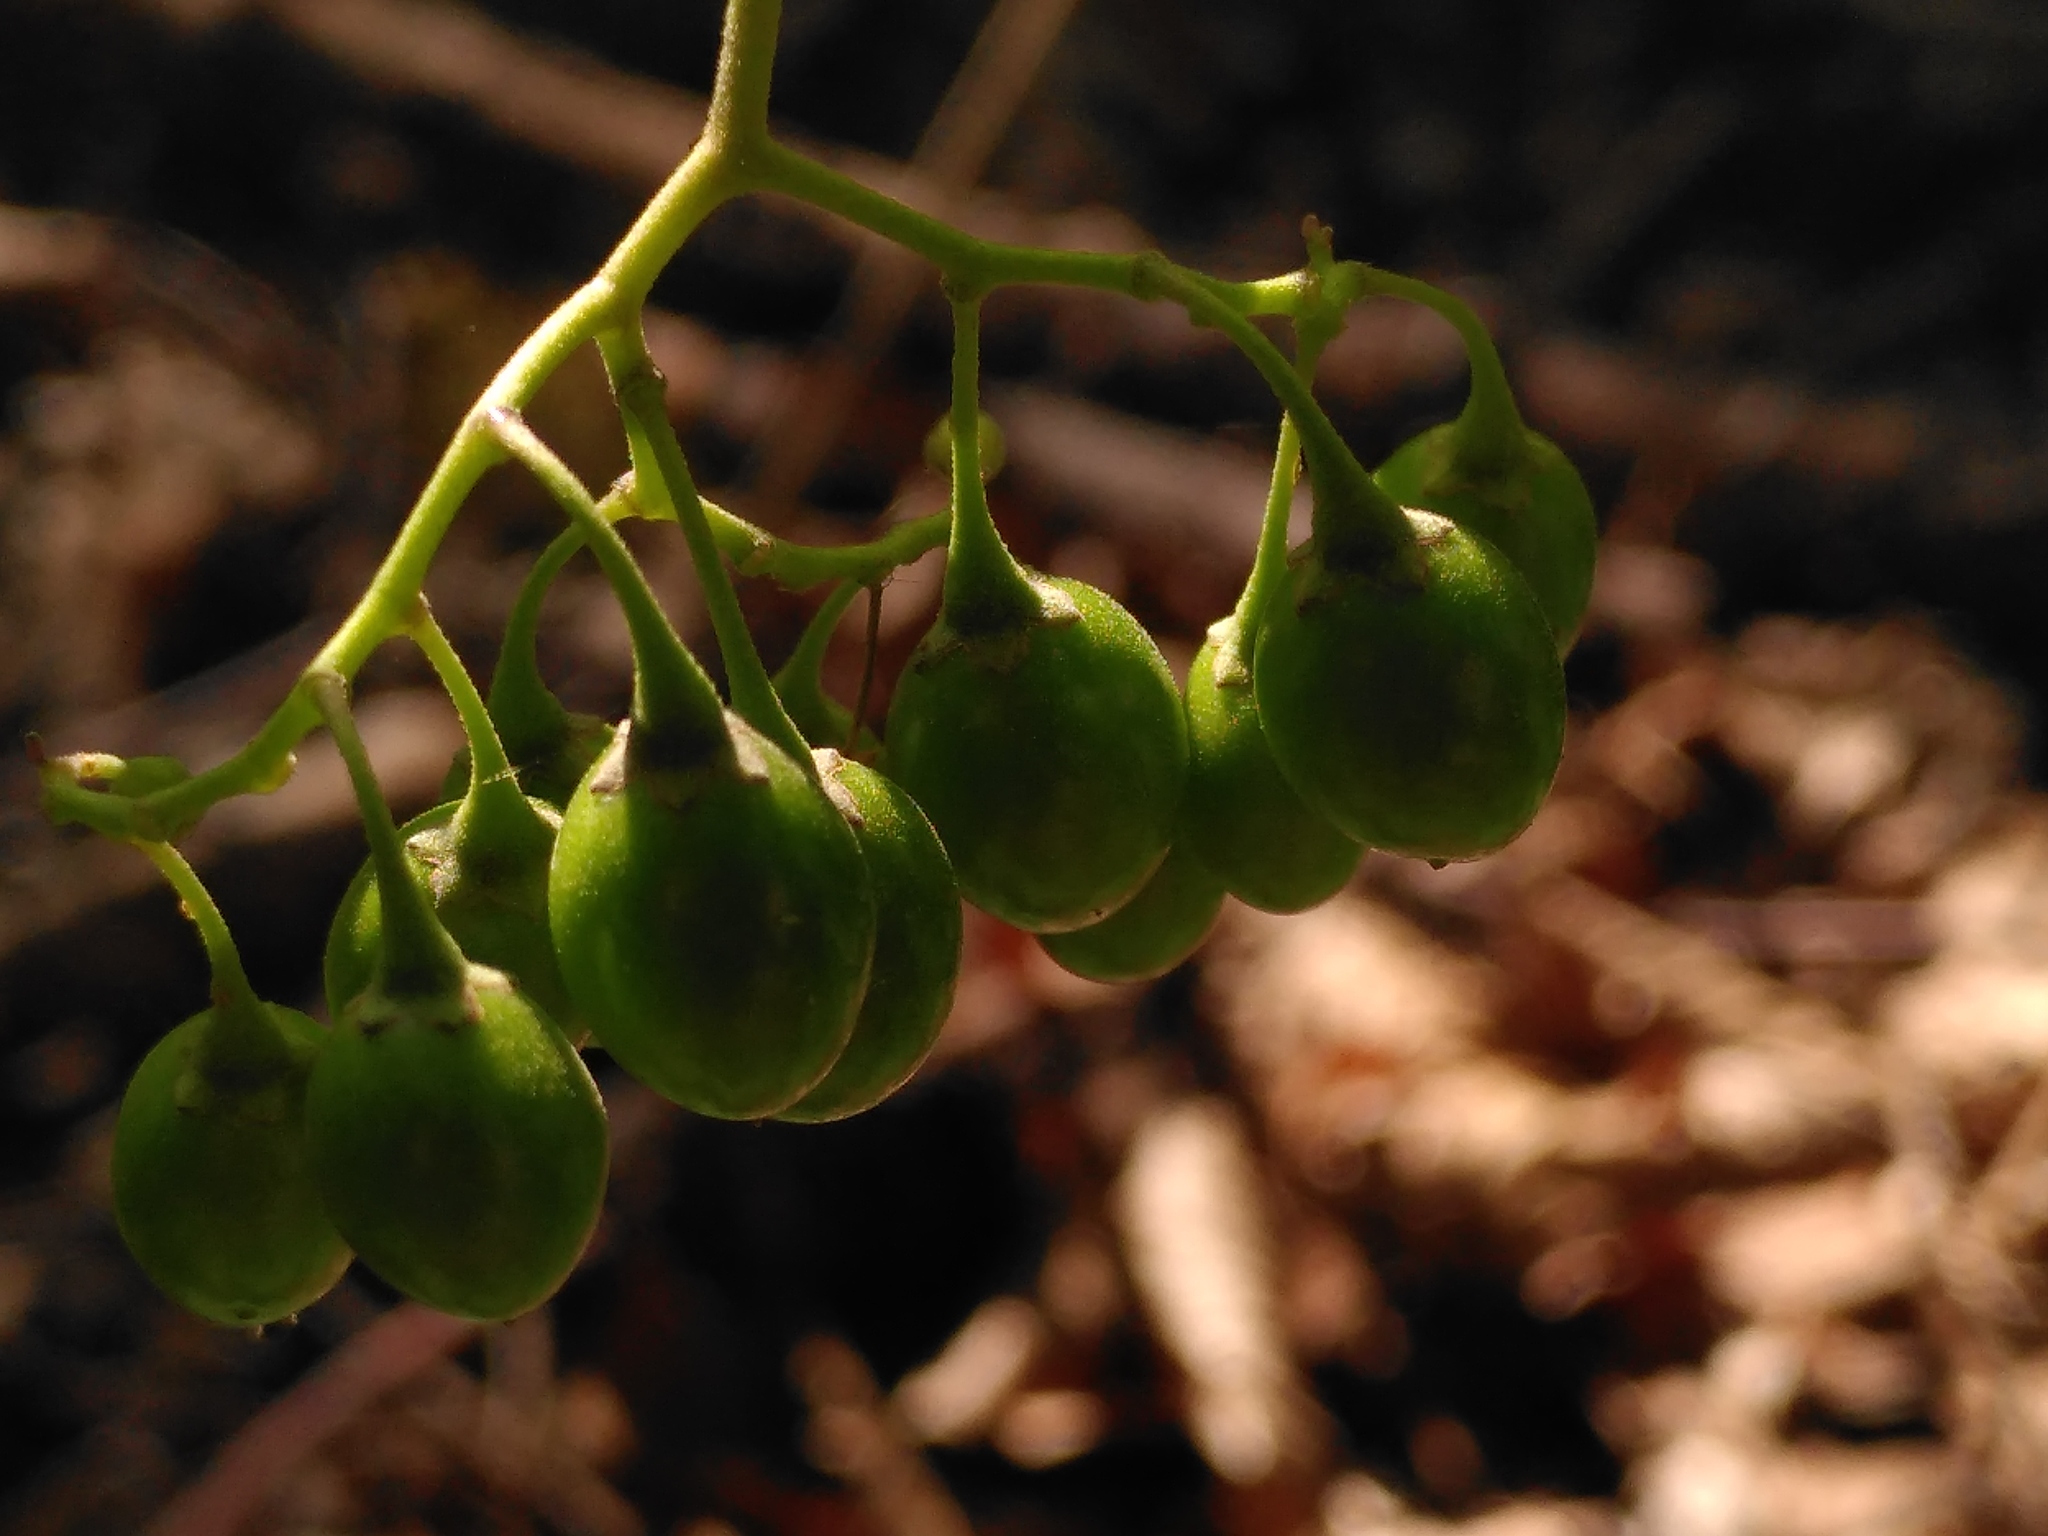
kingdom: Plantae
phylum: Tracheophyta
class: Magnoliopsida
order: Solanales
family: Solanaceae
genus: Solanum
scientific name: Solanum dulcamara
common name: Climbing nightshade
